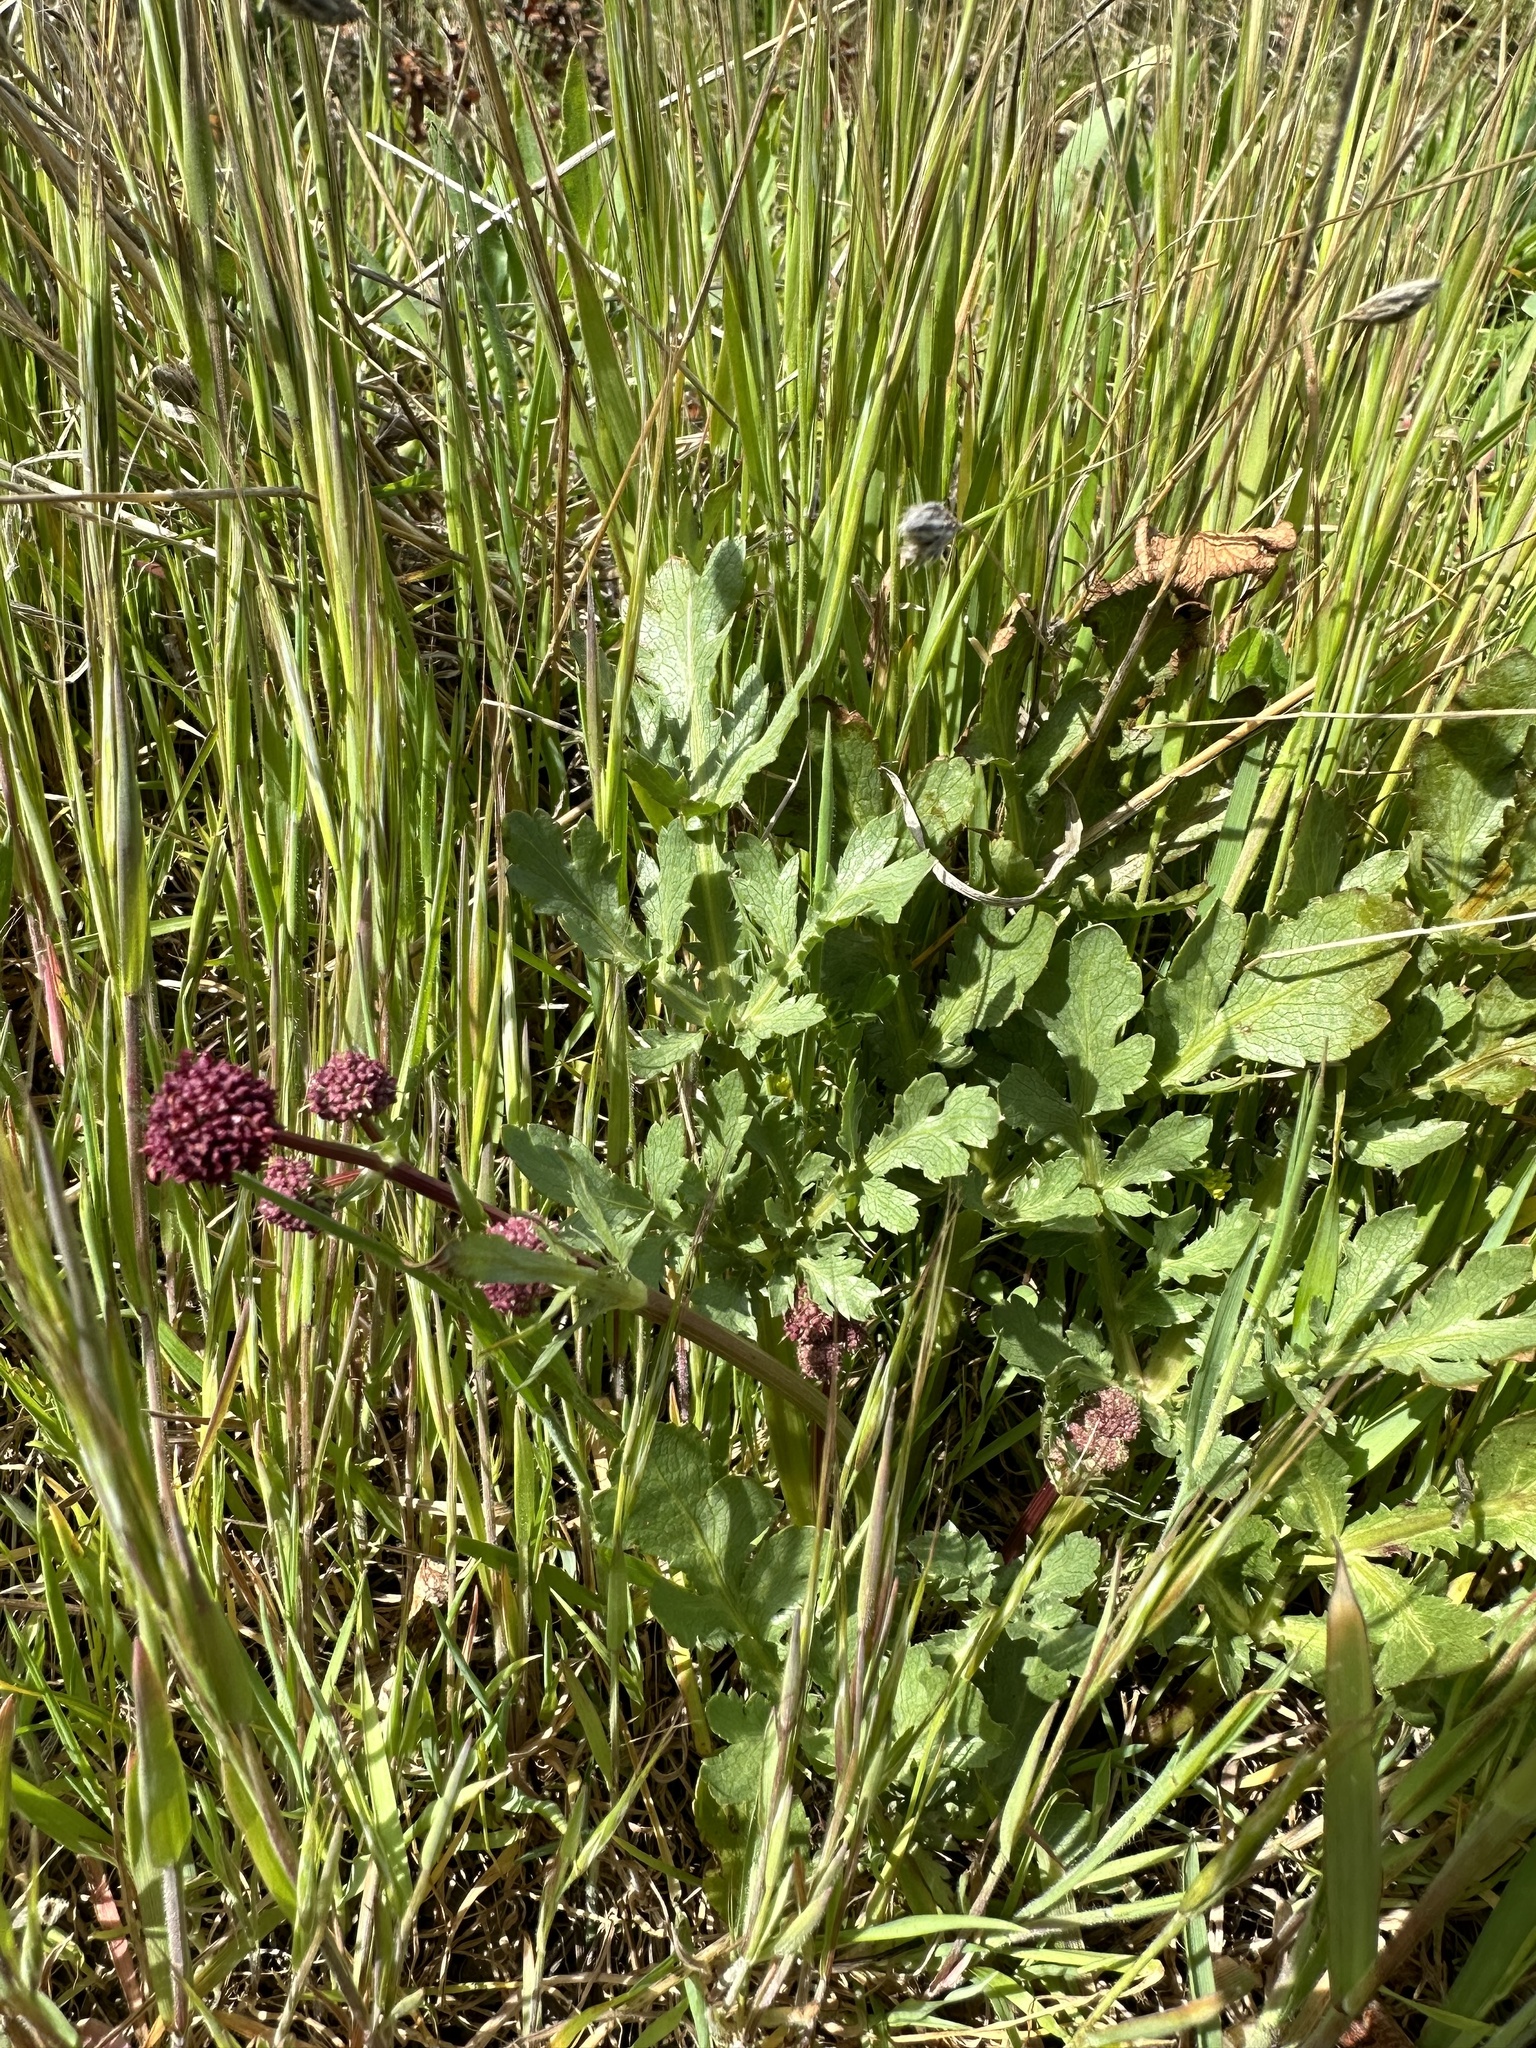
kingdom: Plantae
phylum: Tracheophyta
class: Magnoliopsida
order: Apiales
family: Apiaceae
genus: Sanicula
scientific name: Sanicula bipinnatifida
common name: Shoe-buttons
